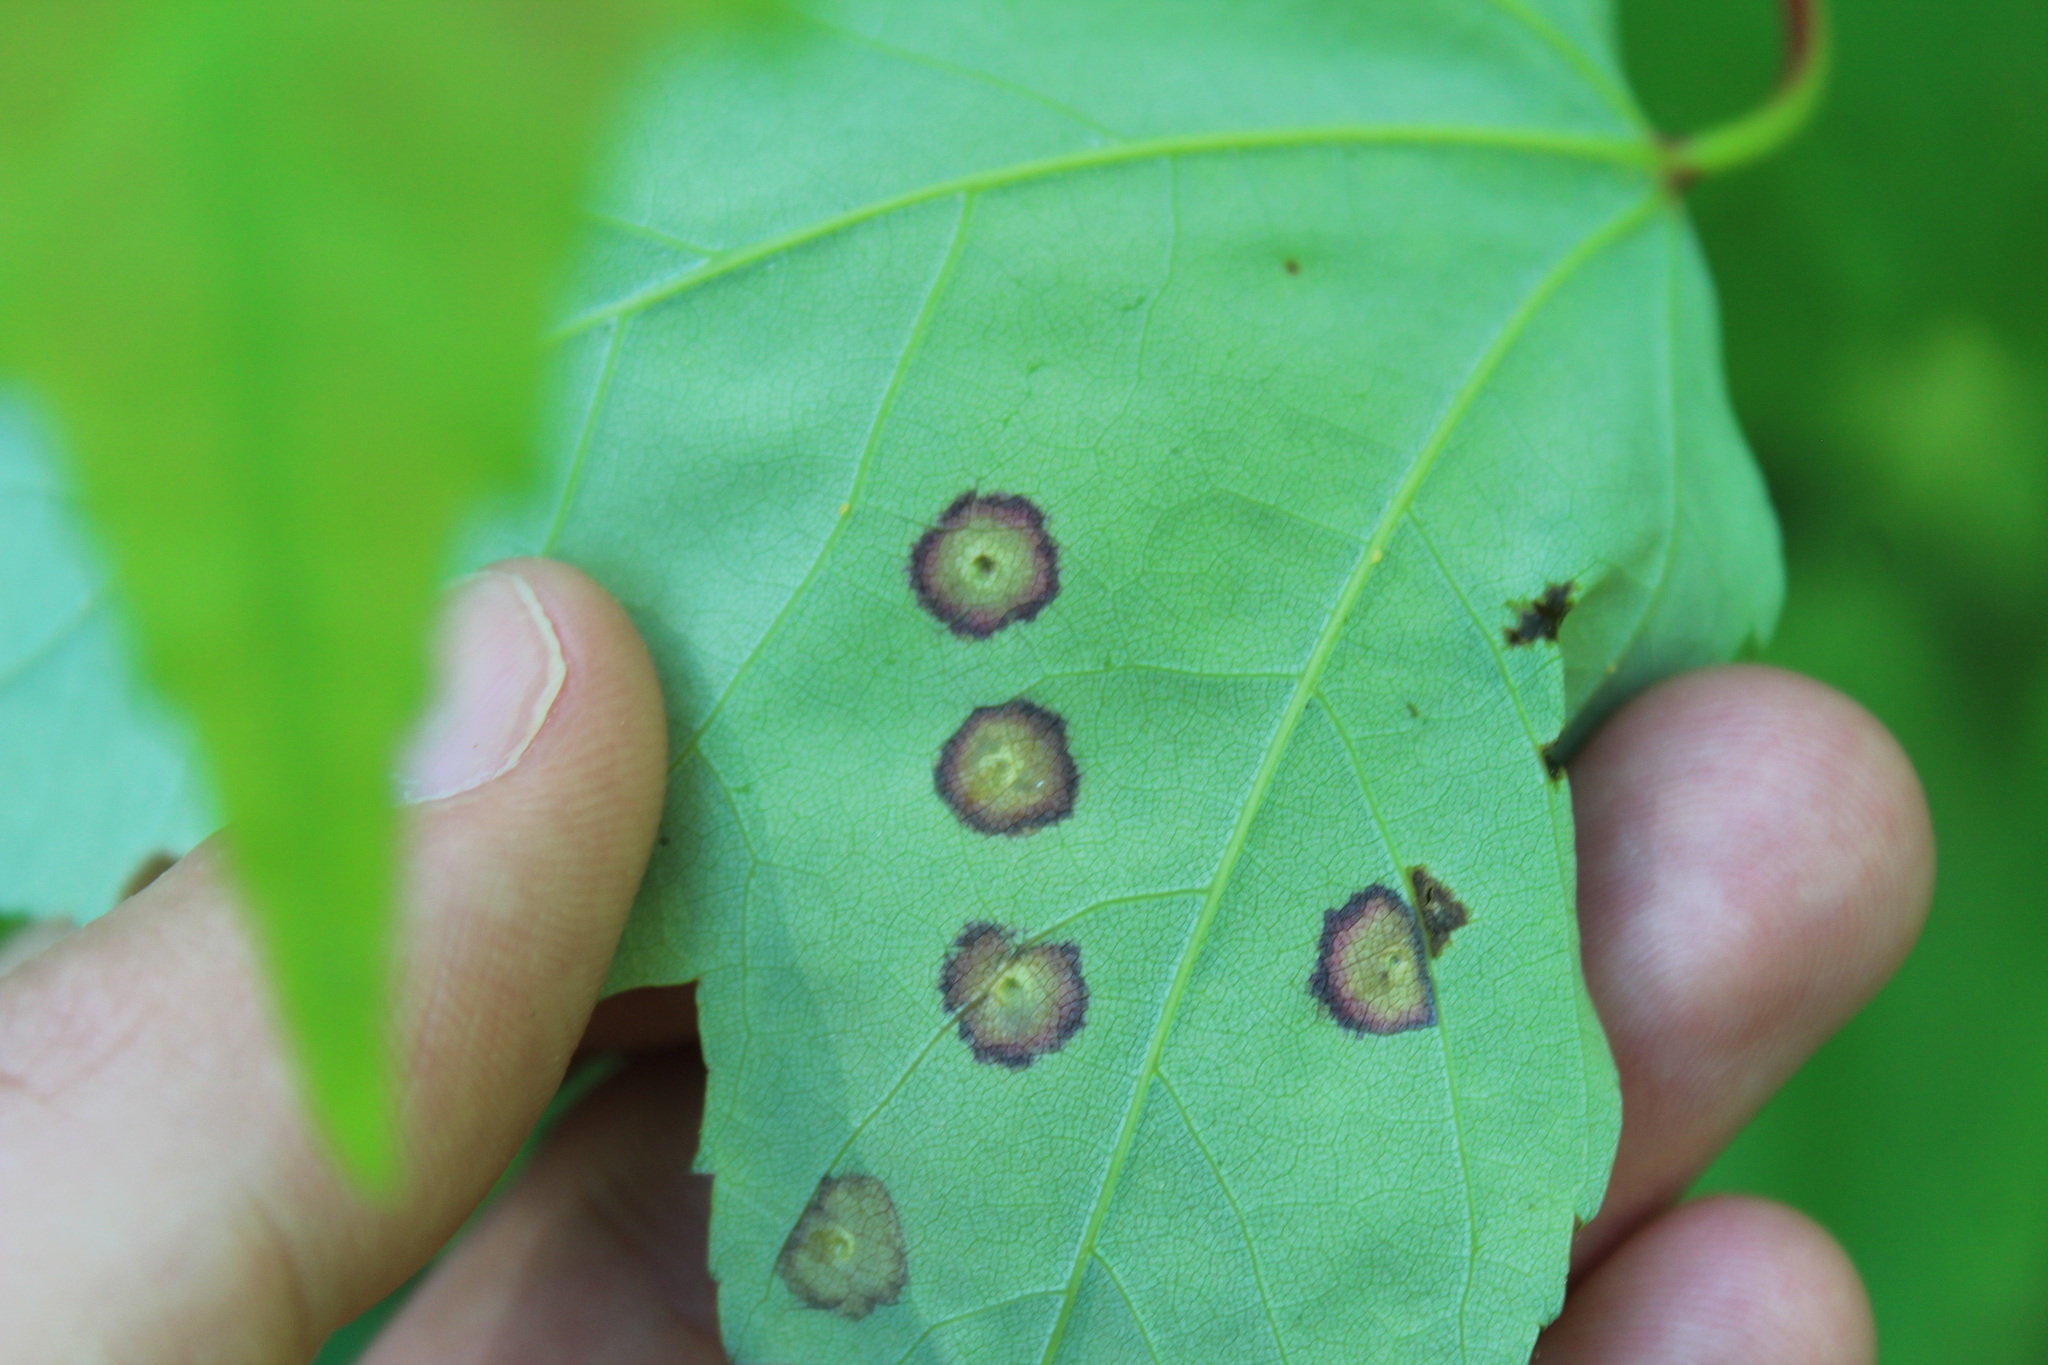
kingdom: Animalia
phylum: Arthropoda
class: Insecta
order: Diptera
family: Cecidomyiidae
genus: Acericecis
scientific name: Acericecis ocellaris
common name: Ocellate gall midge
